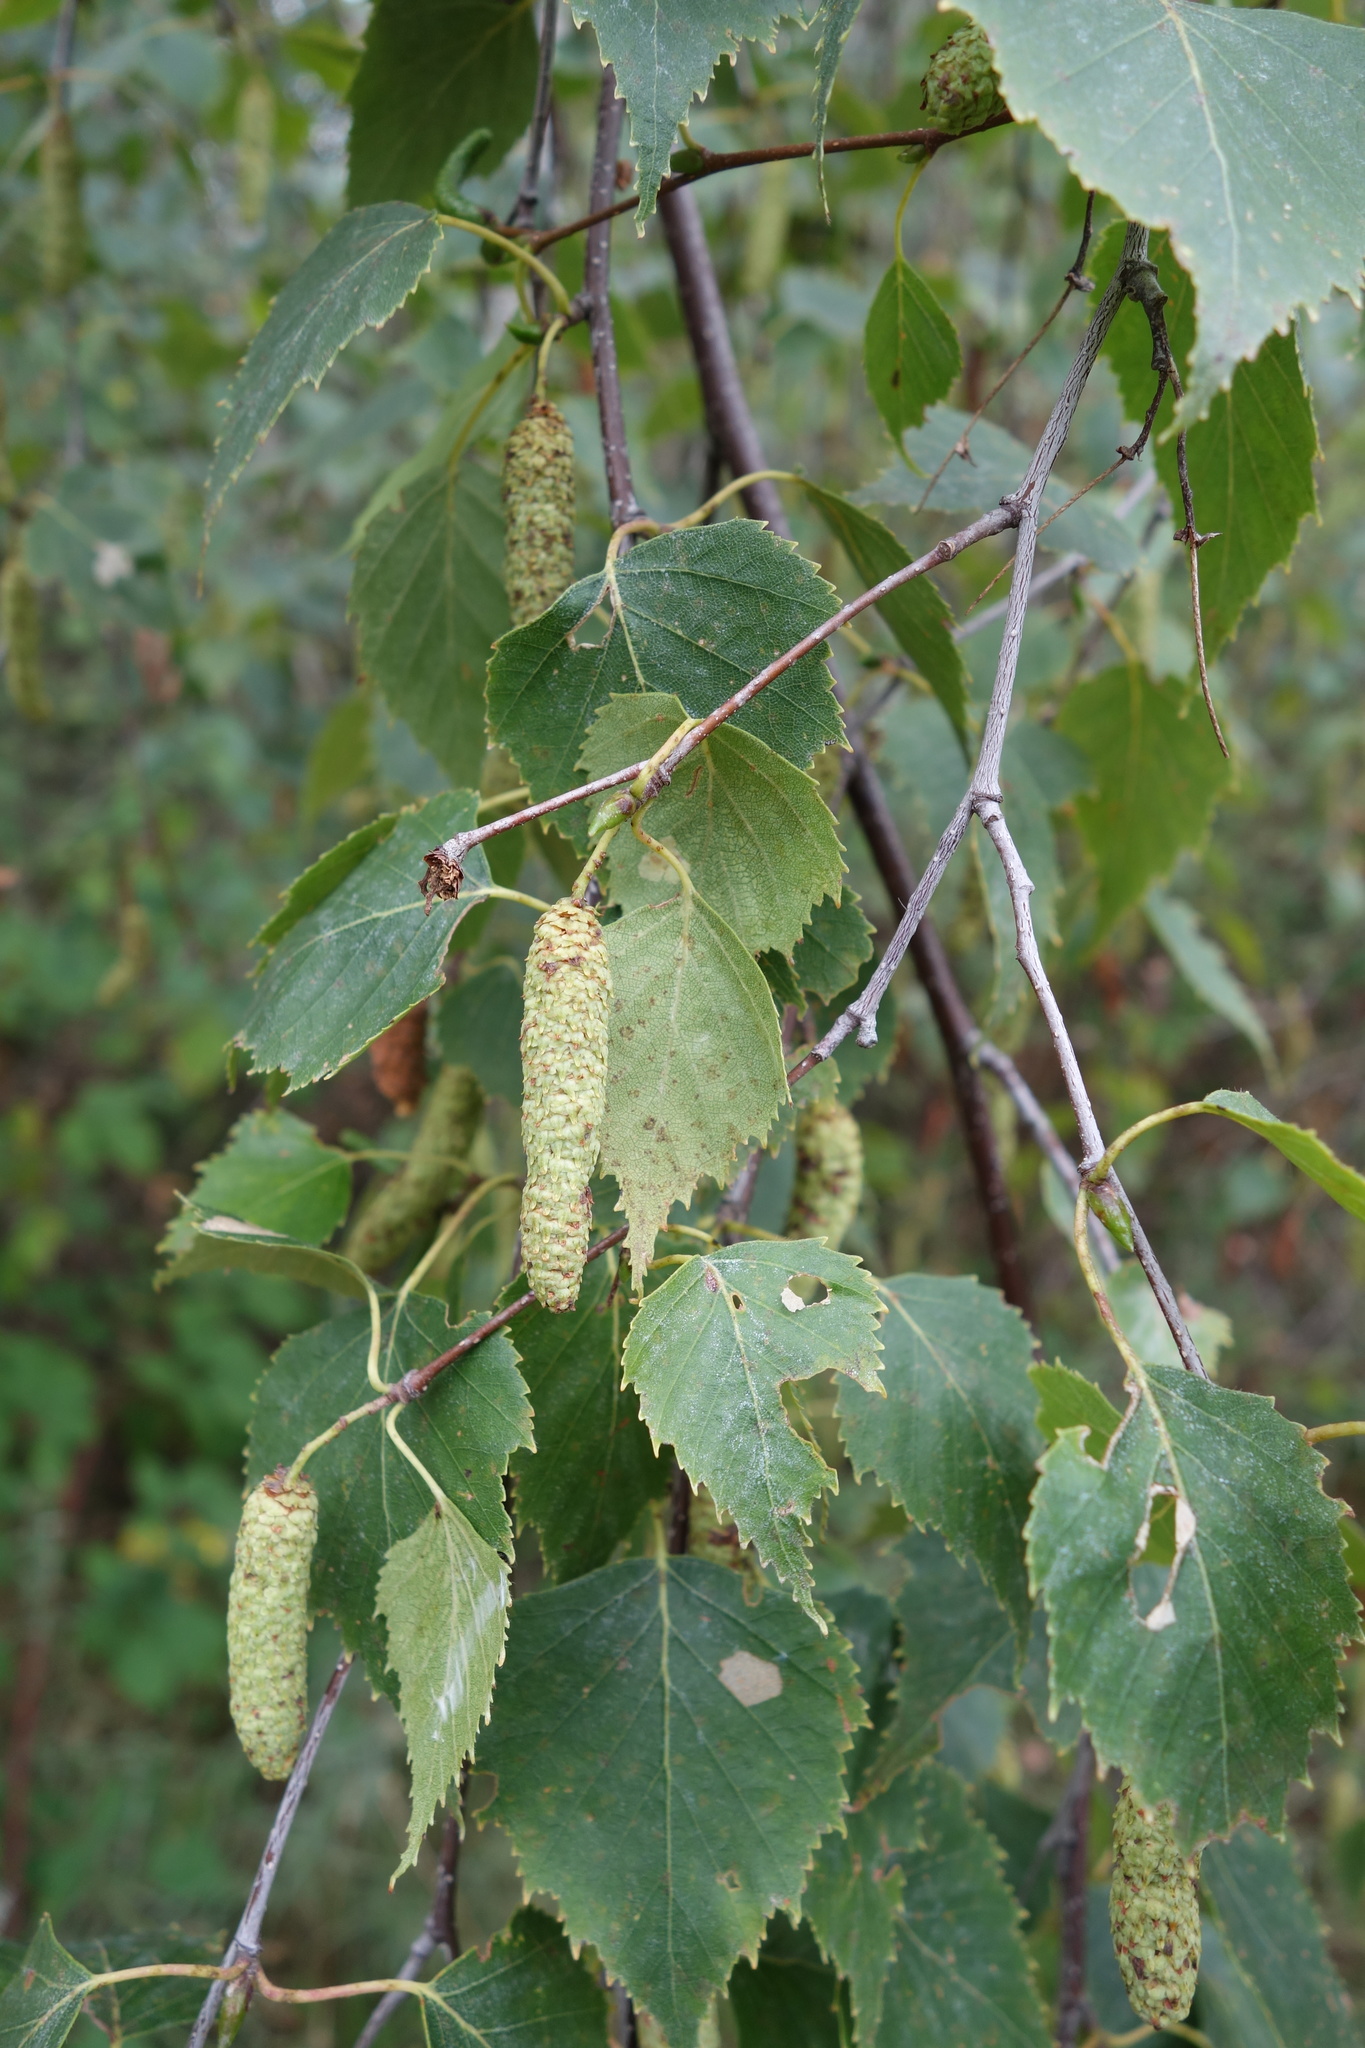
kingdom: Plantae
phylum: Tracheophyta
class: Magnoliopsida
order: Fagales
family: Betulaceae
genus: Betula
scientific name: Betula pendula
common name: Silver birch
